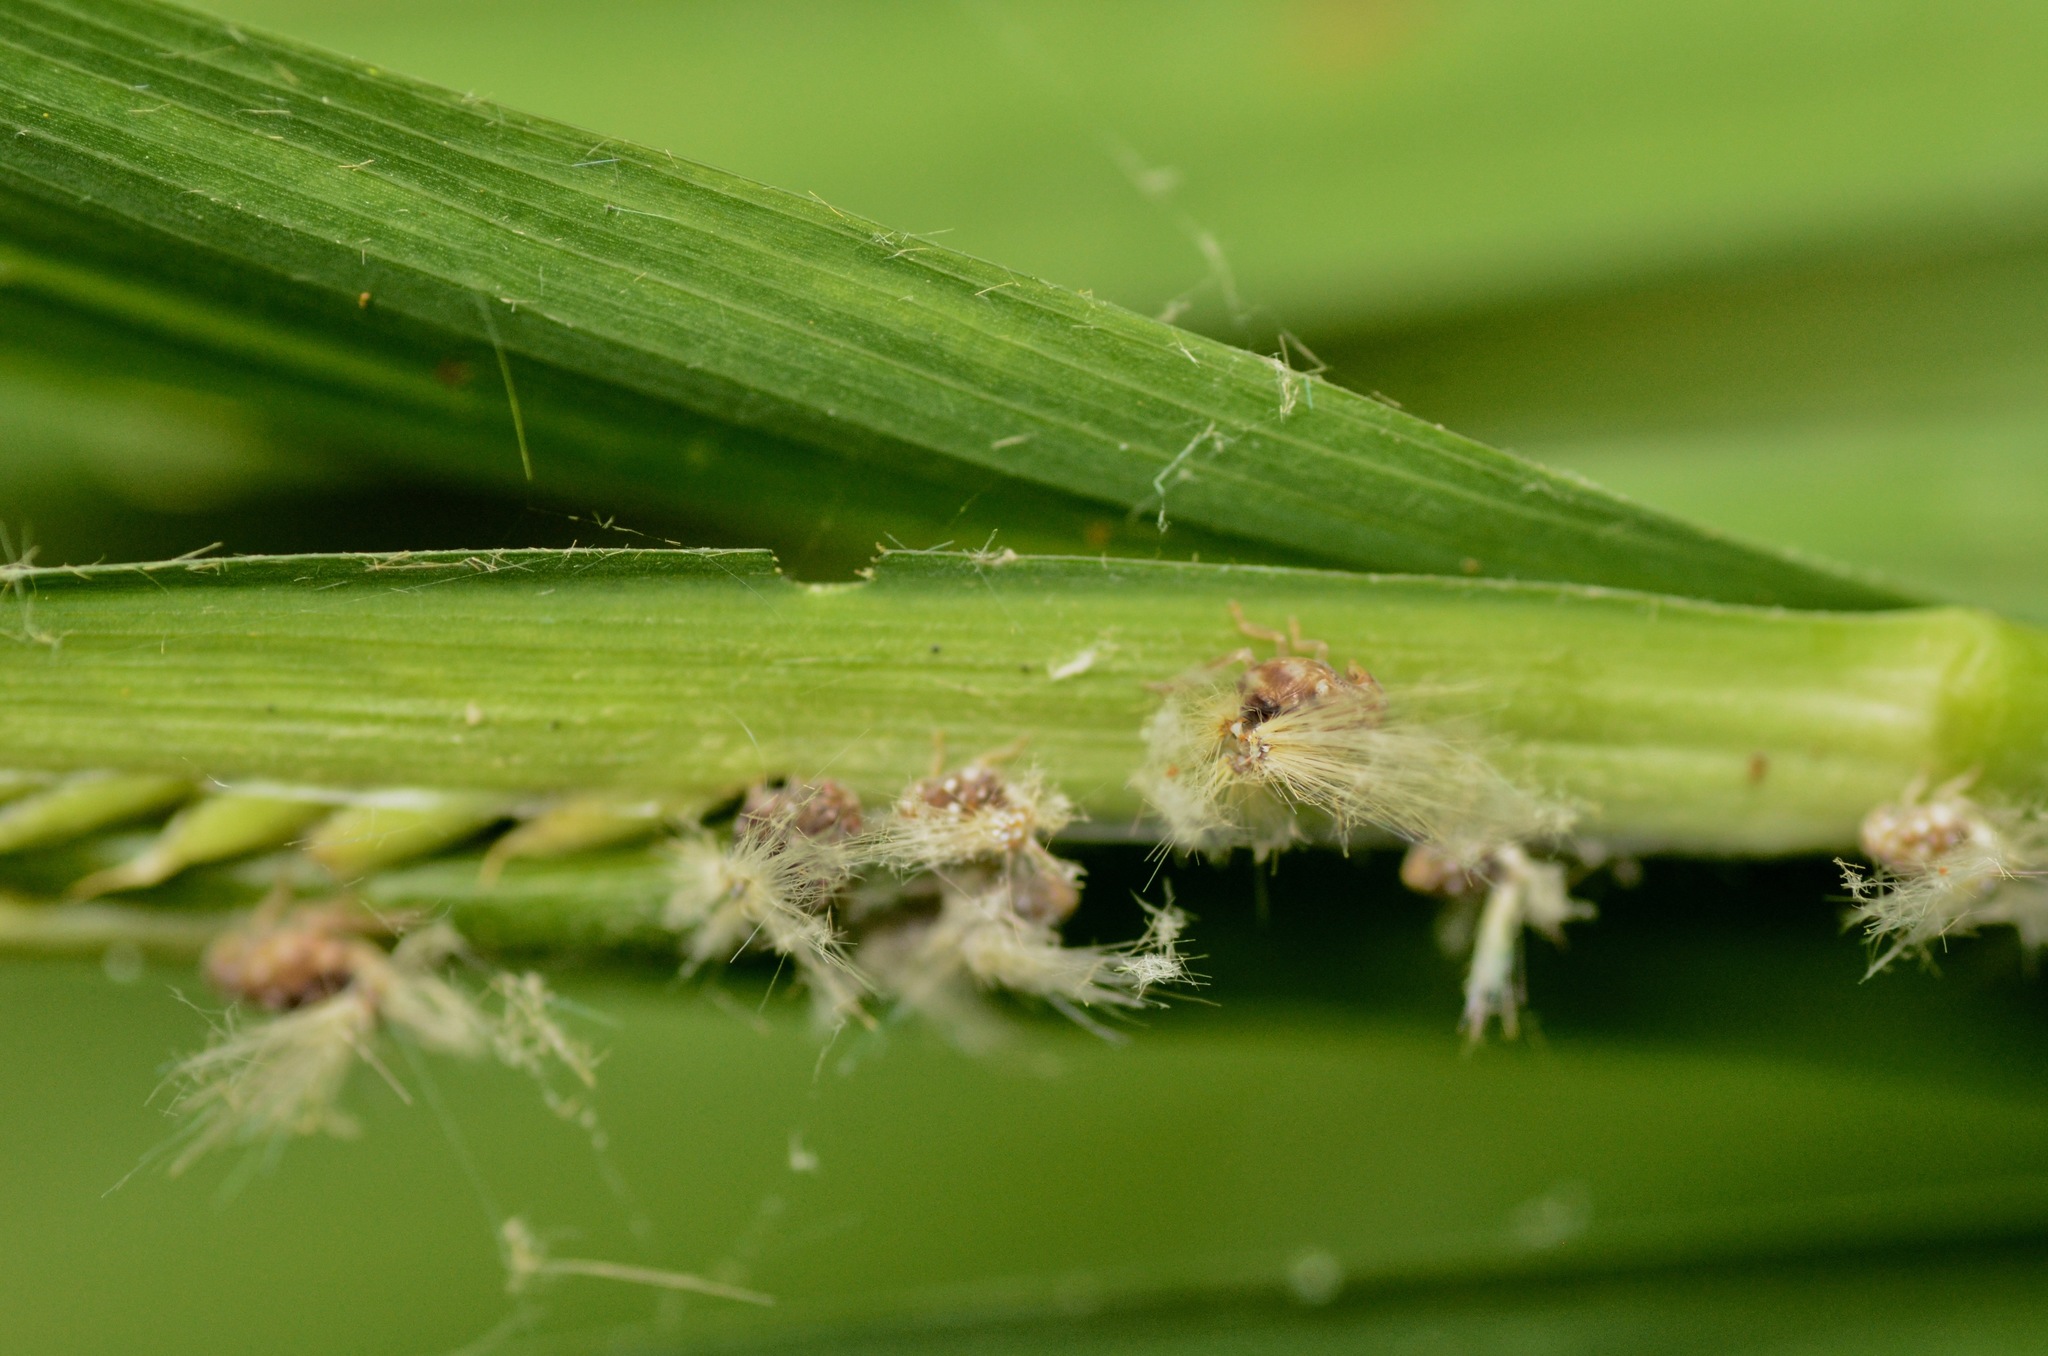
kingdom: Animalia
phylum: Arthropoda
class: Insecta
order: Hemiptera
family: Ricaniidae
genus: Scolypopa
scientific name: Scolypopa australis
